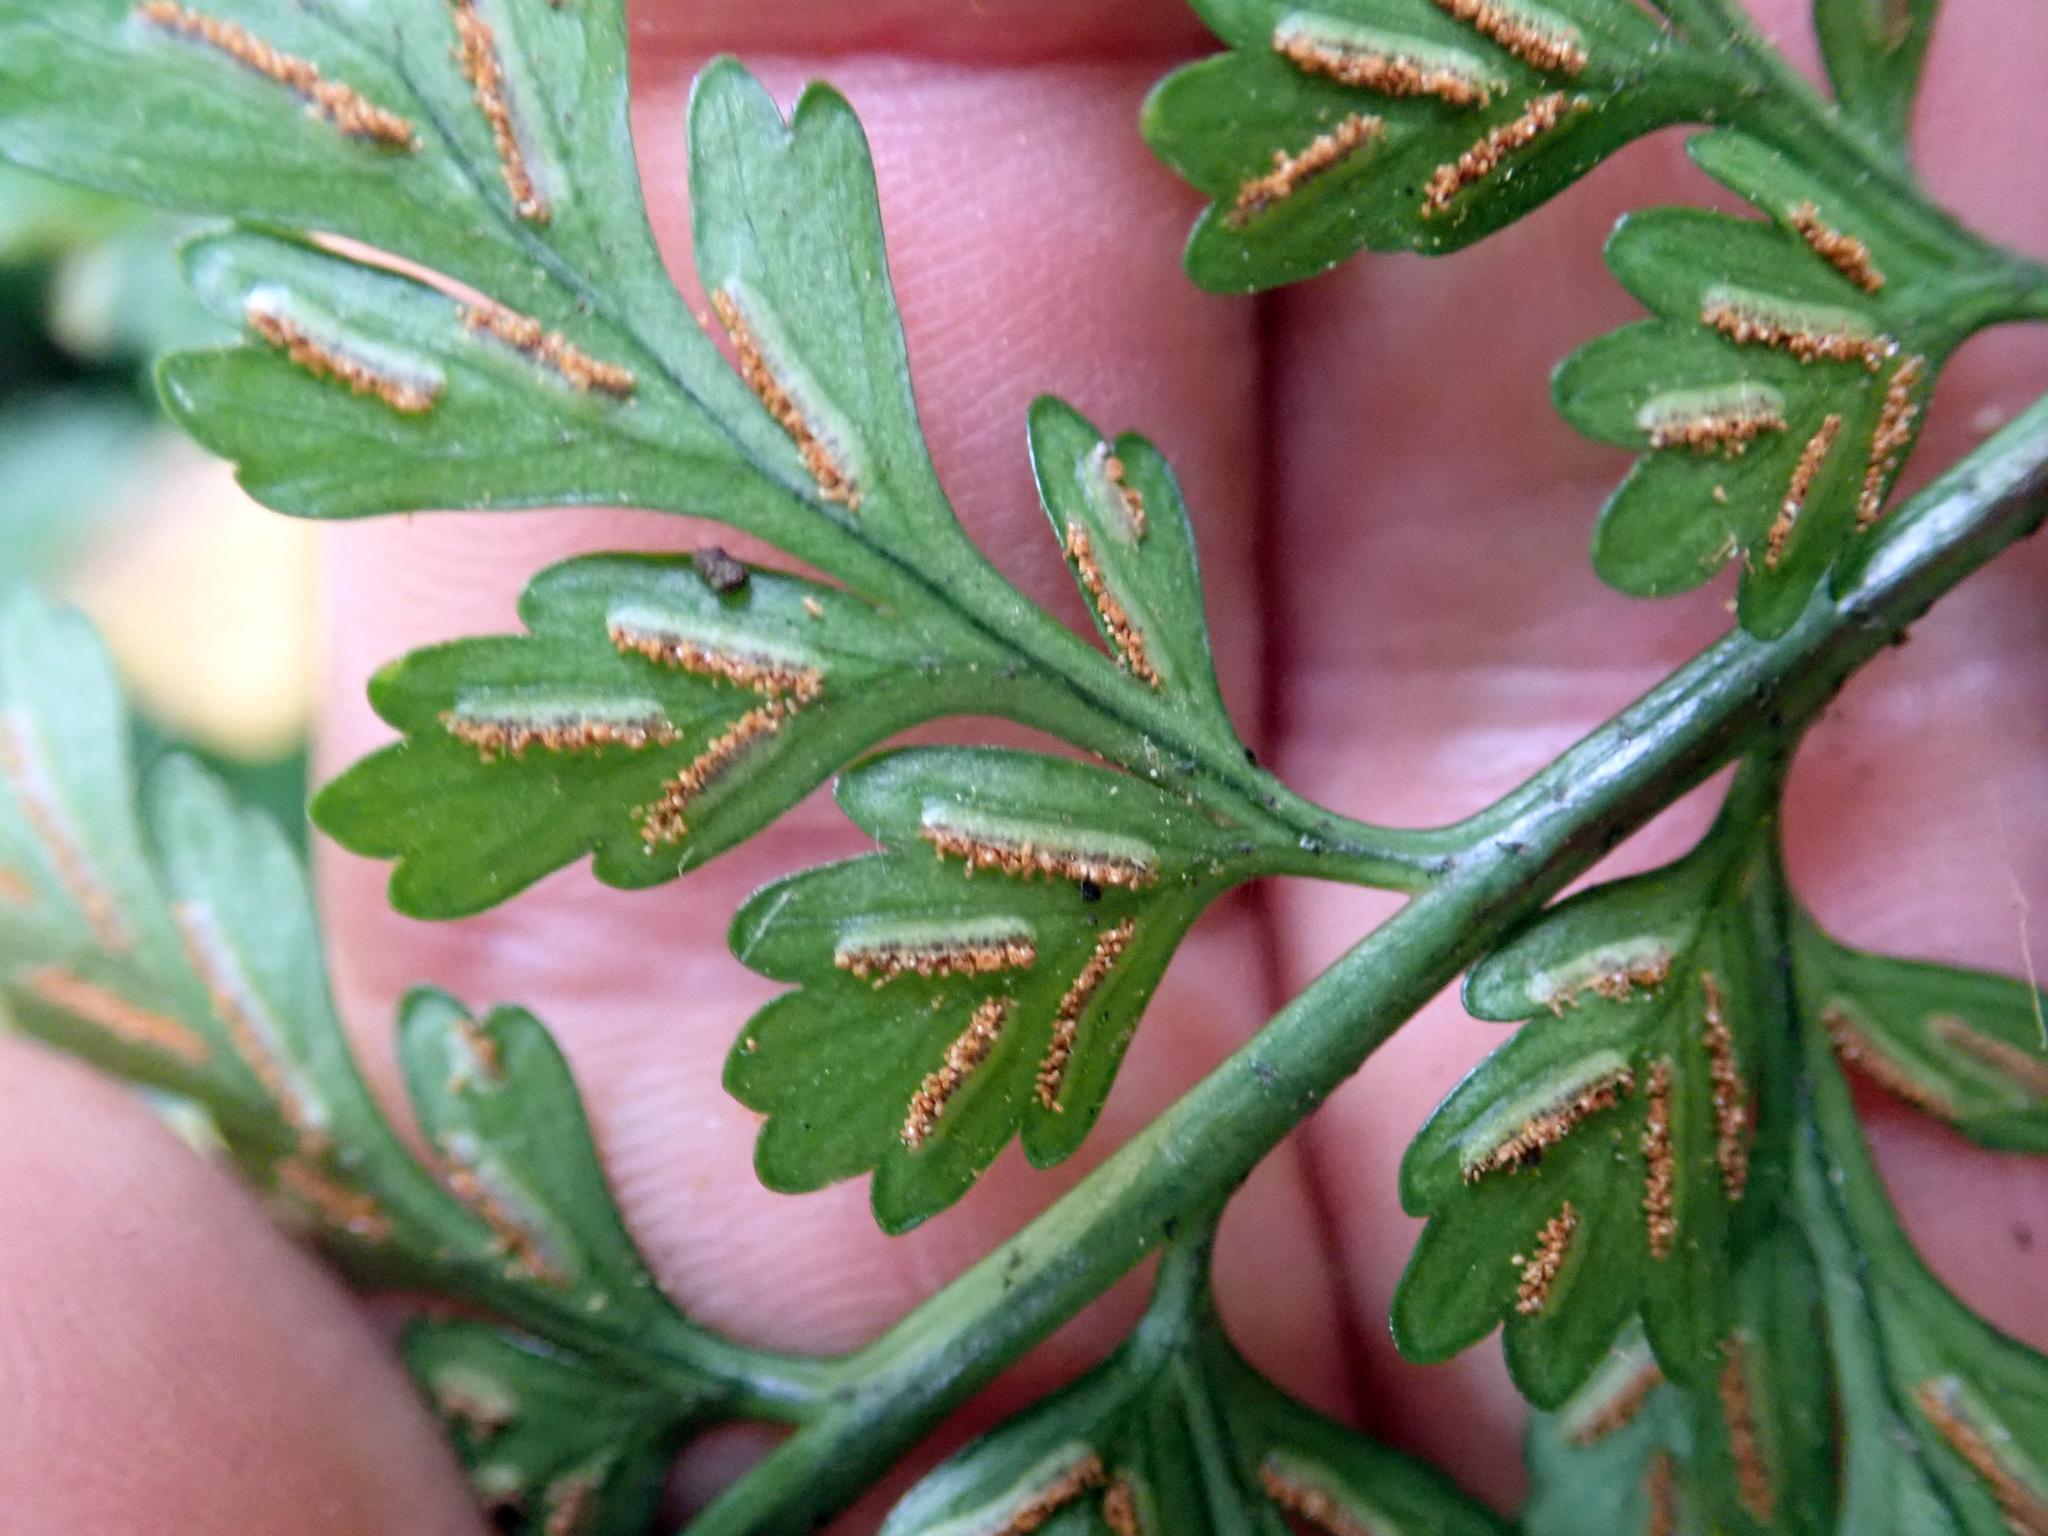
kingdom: Plantae
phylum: Tracheophyta
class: Polypodiopsida
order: Polypodiales
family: Aspleniaceae
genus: Asplenium
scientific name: Asplenium lamprophyllum
